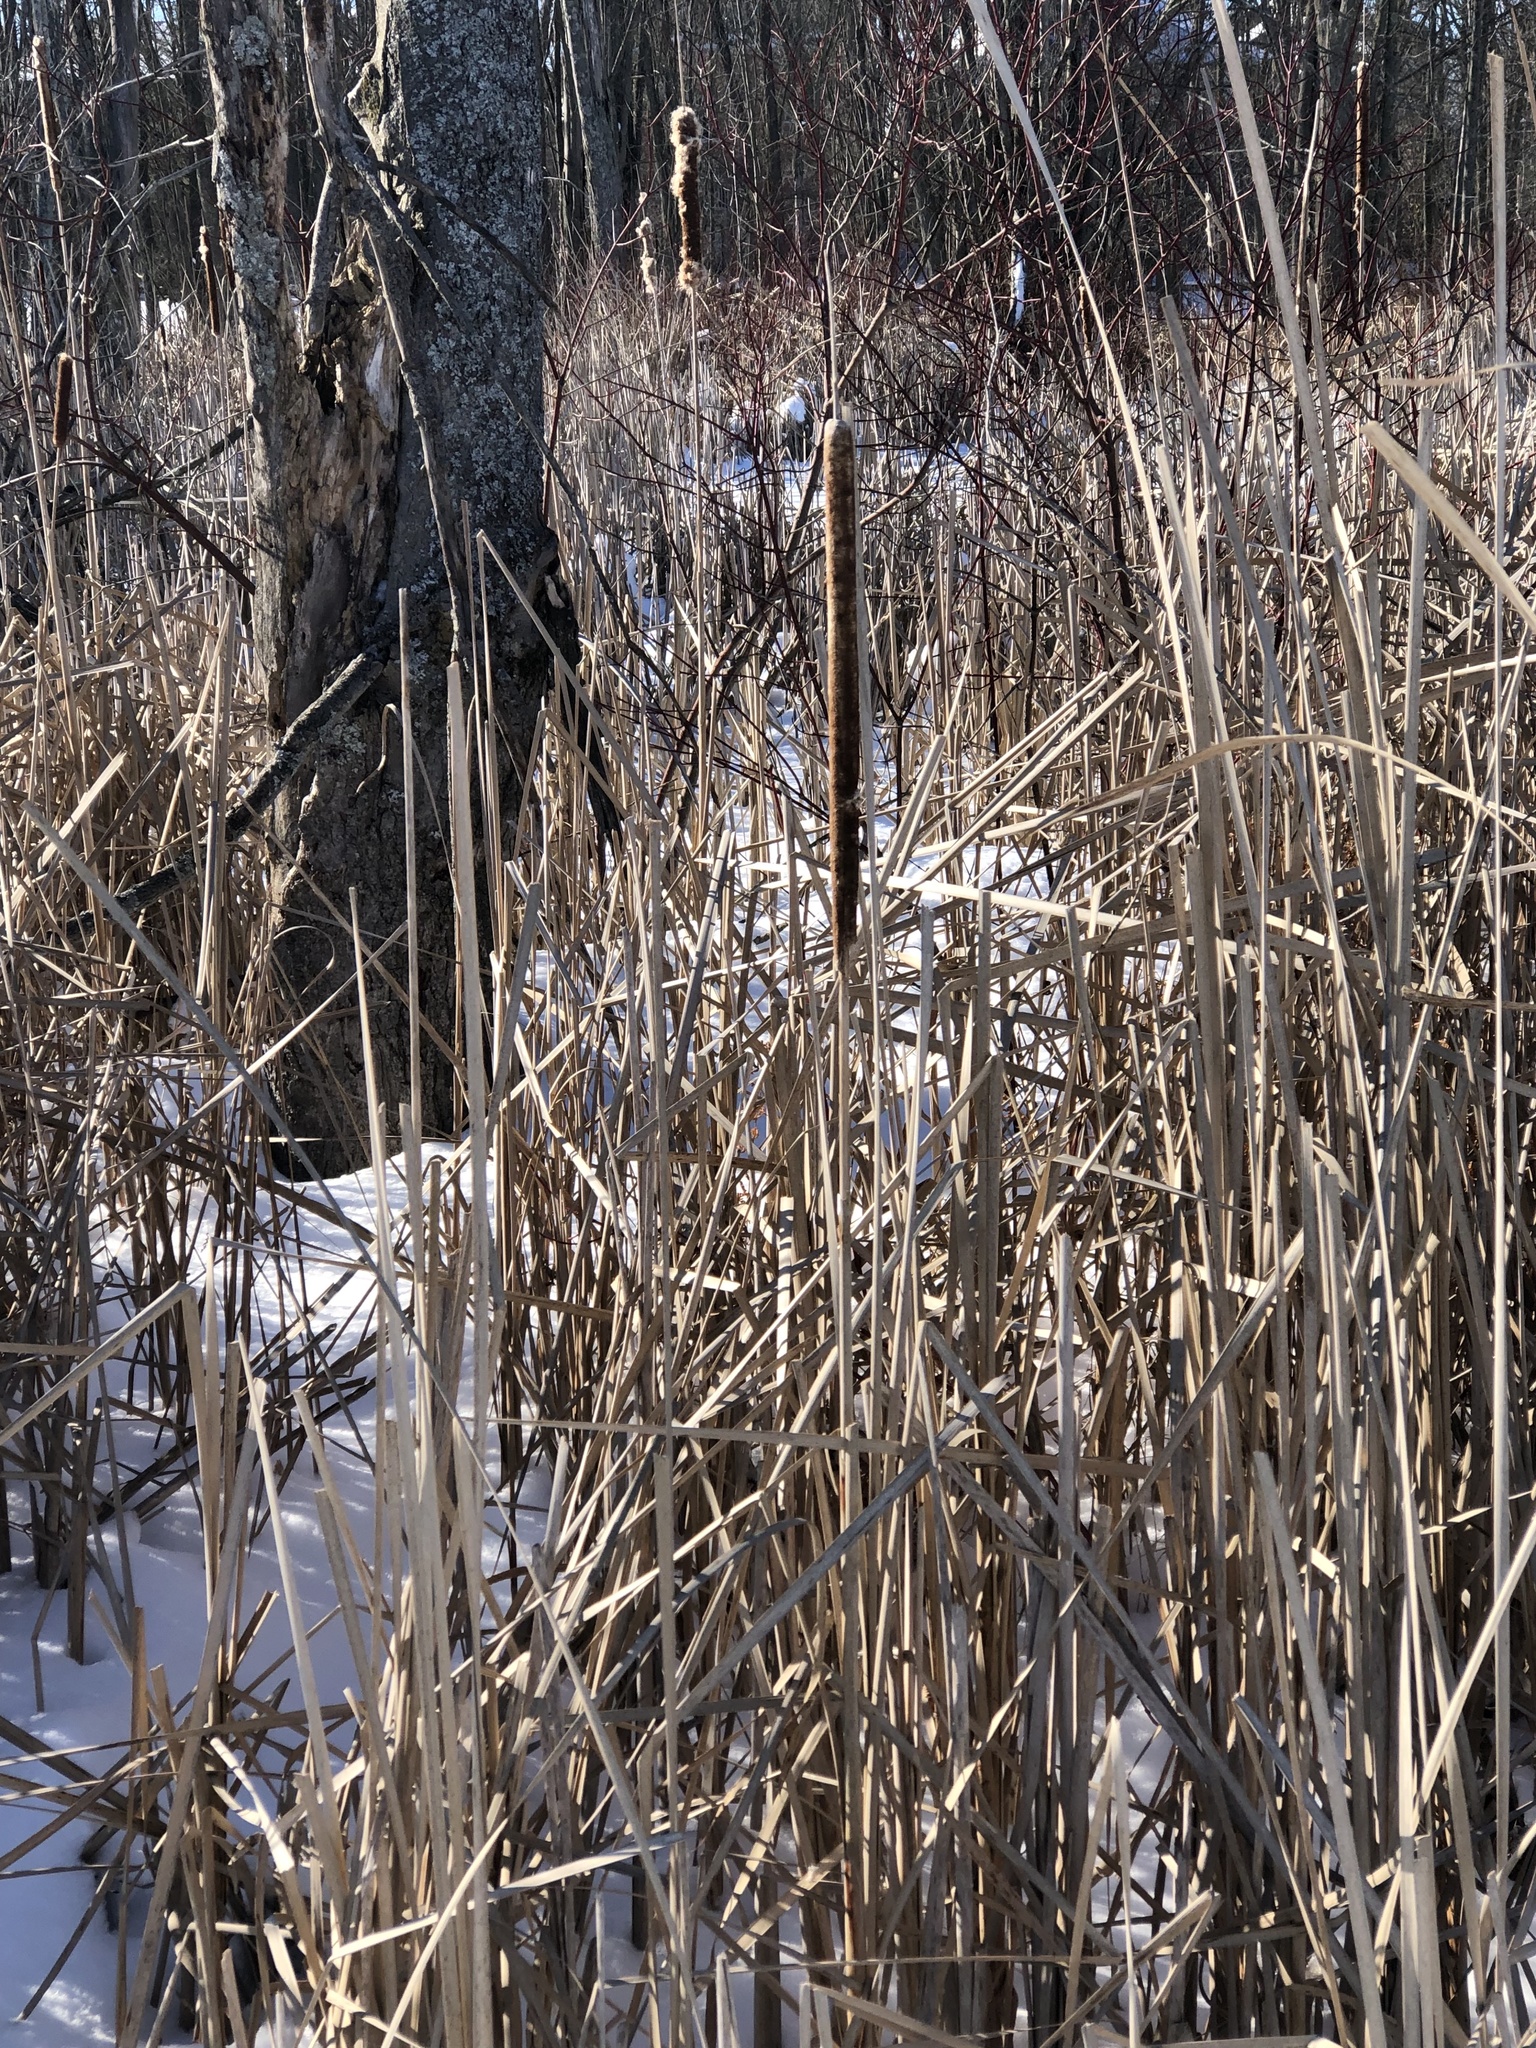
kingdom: Plantae
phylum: Tracheophyta
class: Liliopsida
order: Poales
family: Typhaceae
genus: Typha
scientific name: Typha latifolia
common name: Broadleaf cattail
